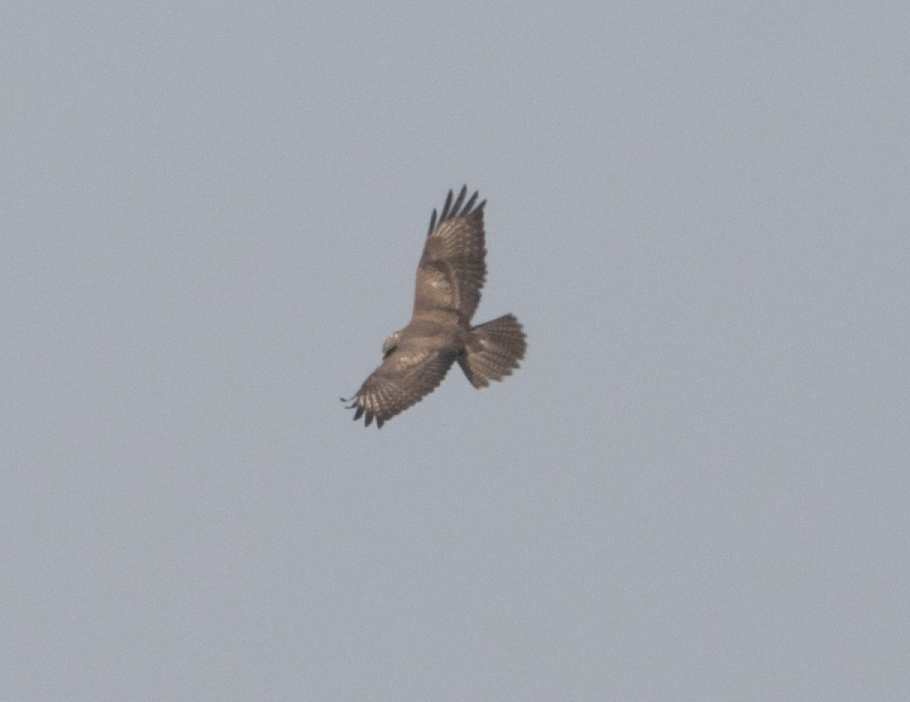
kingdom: Animalia
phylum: Chordata
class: Aves
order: Accipitriformes
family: Accipitridae
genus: Buteo
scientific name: Buteo buteo
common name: Common buzzard
